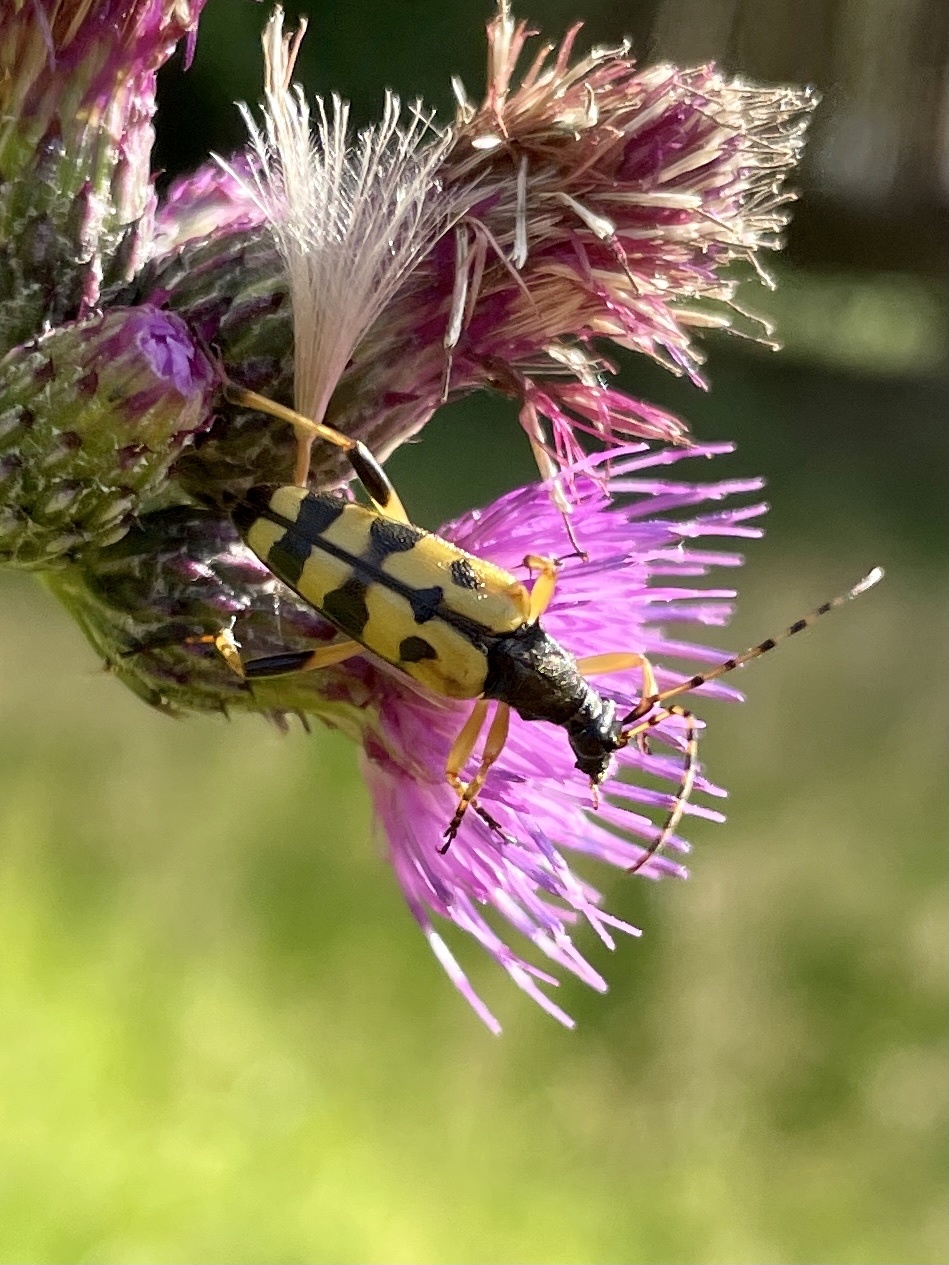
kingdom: Animalia
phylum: Arthropoda
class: Insecta
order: Coleoptera
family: Cerambycidae
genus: Rutpela
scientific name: Rutpela maculata
